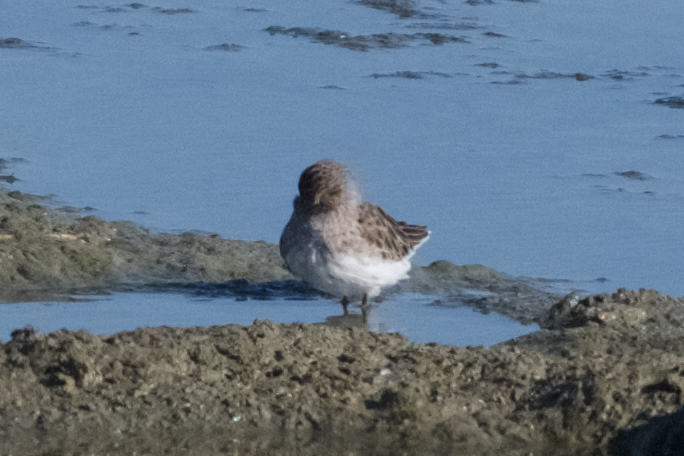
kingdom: Animalia
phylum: Chordata
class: Aves
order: Charadriiformes
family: Scolopacidae
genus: Calidris
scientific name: Calidris minutilla
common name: Least sandpiper
